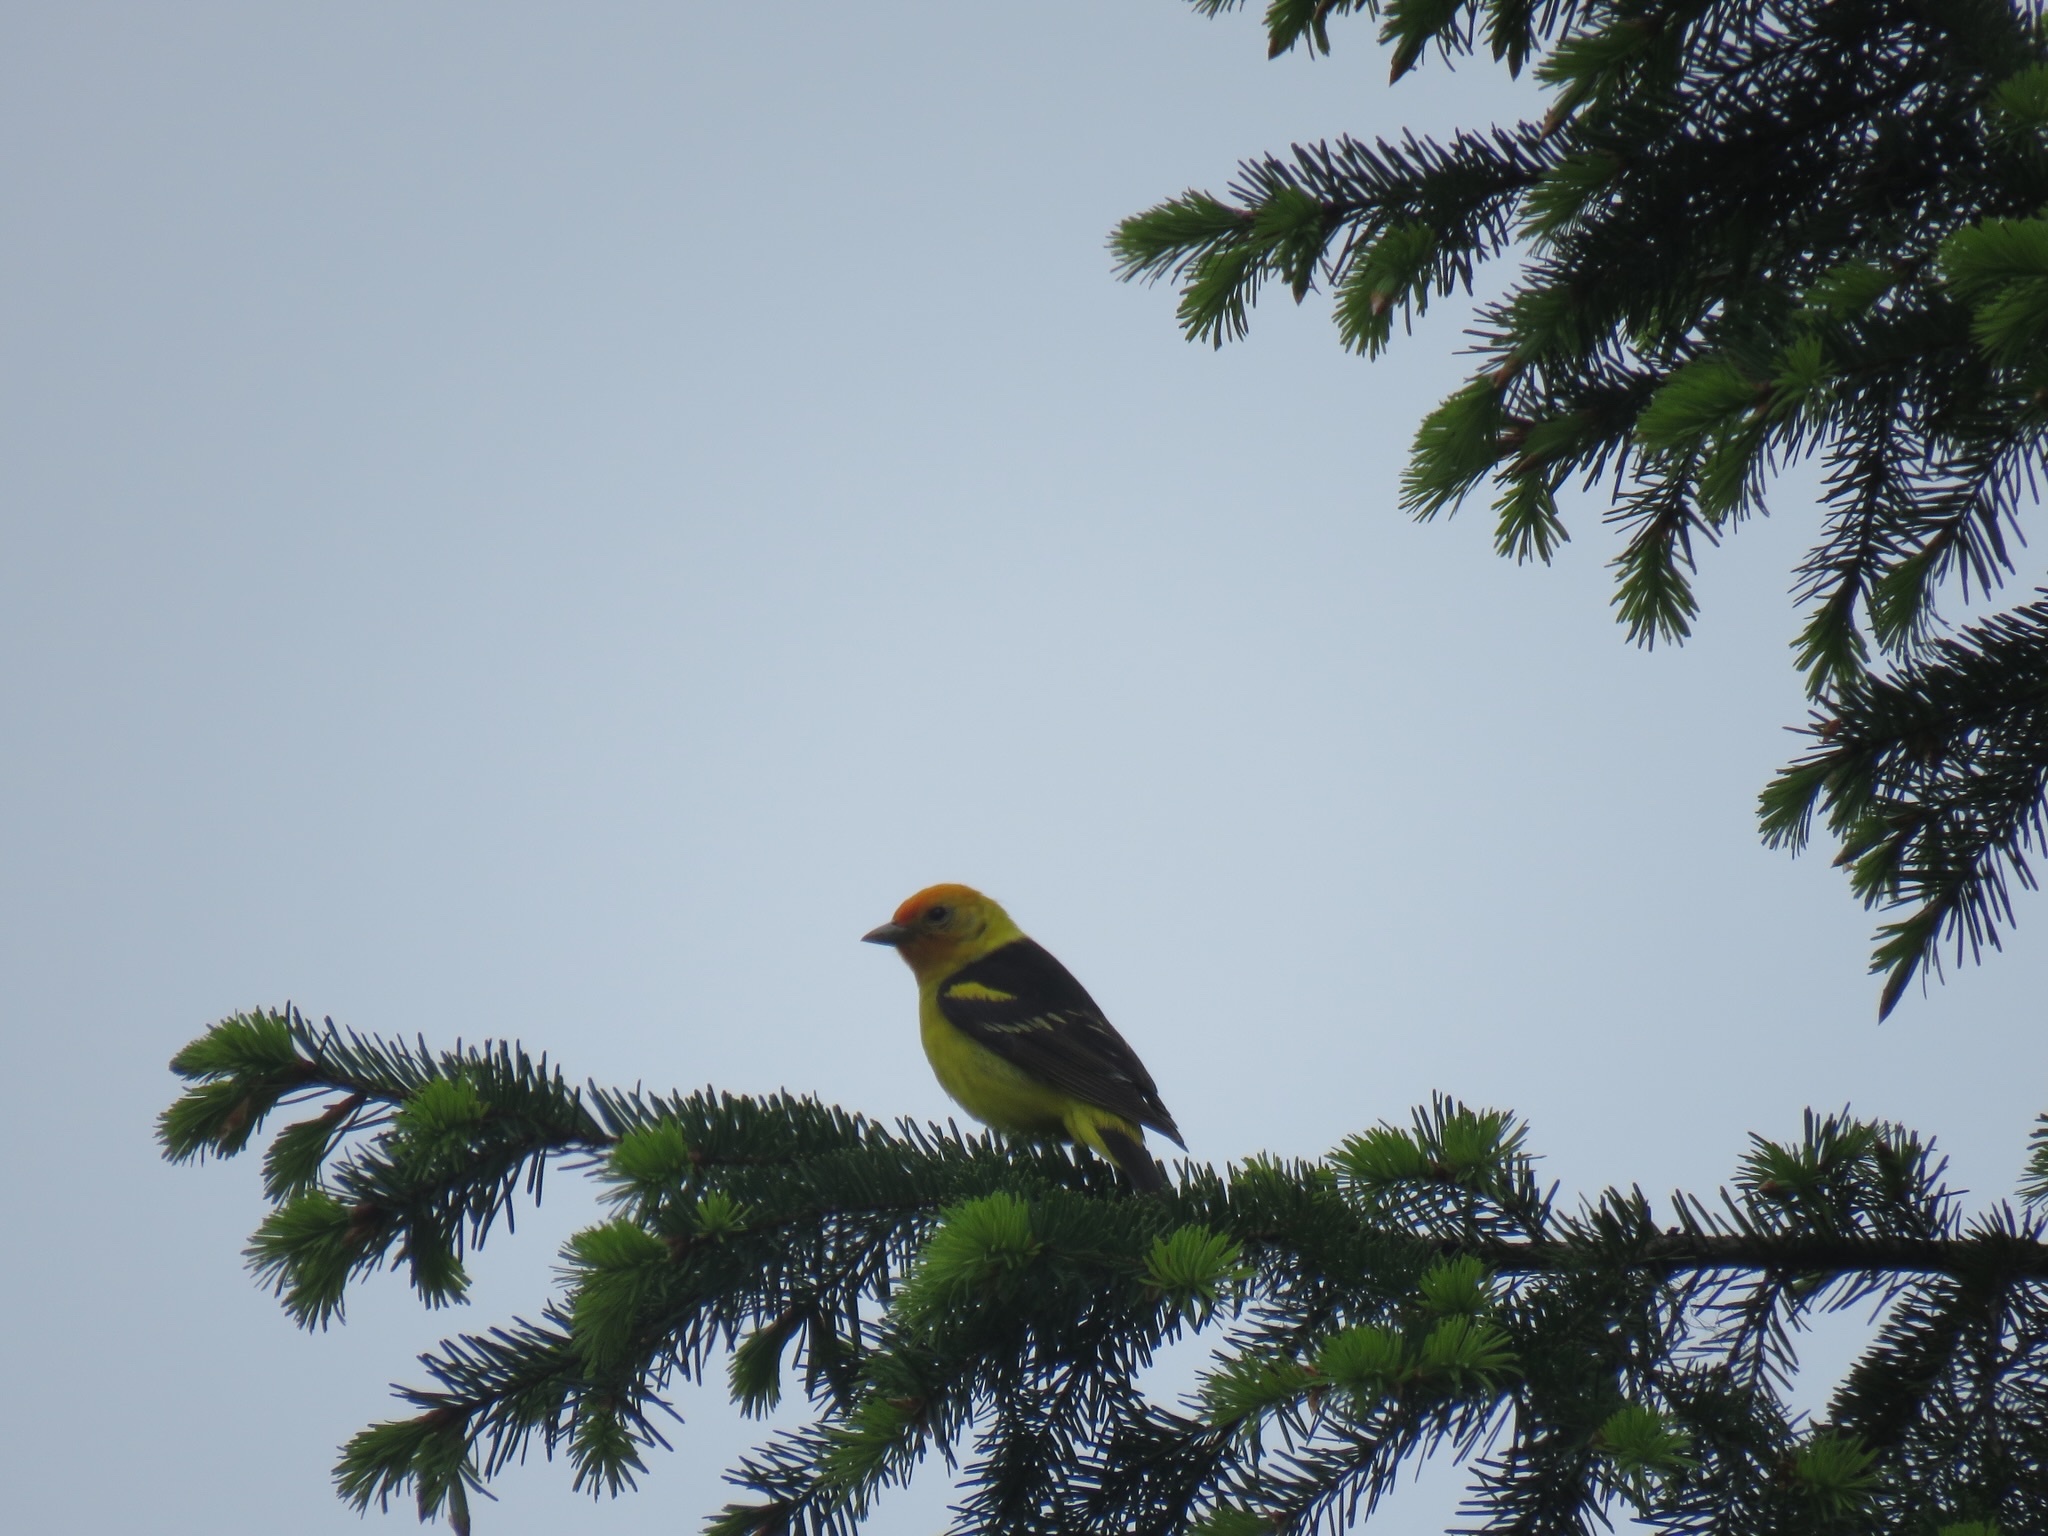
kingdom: Animalia
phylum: Chordata
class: Aves
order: Passeriformes
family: Cardinalidae
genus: Piranga
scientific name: Piranga ludoviciana
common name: Western tanager
